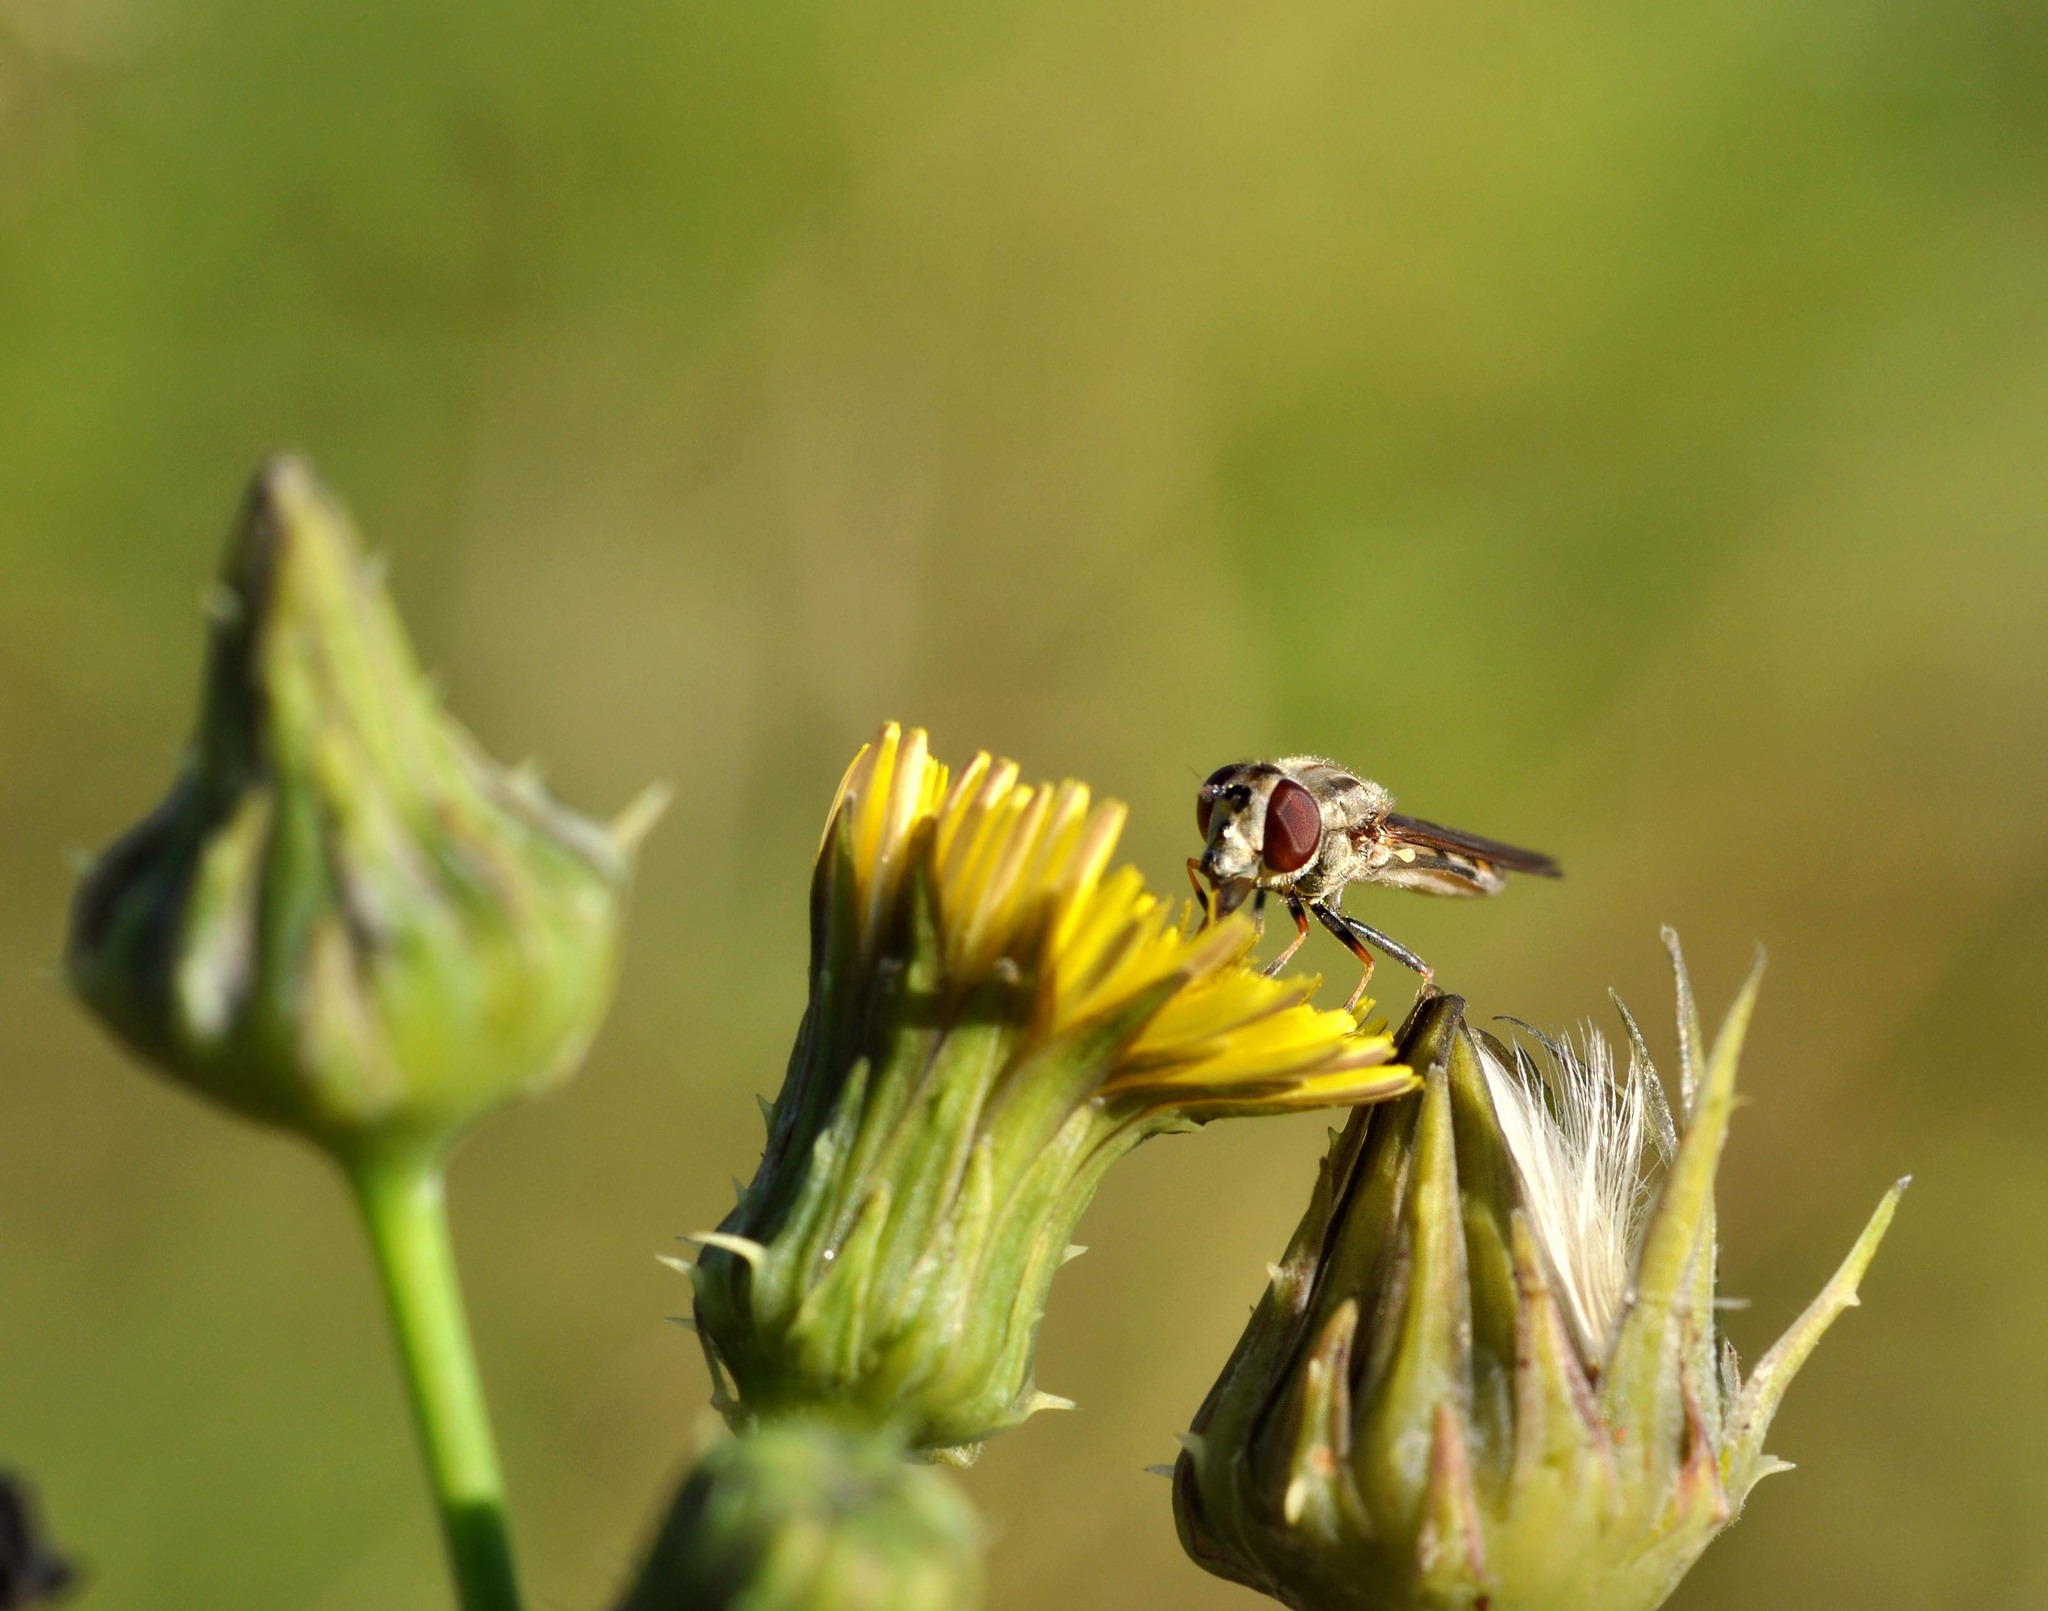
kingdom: Animalia
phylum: Arthropoda
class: Insecta
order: Diptera
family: Syrphidae
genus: Platycheirus
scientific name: Platycheirus manicatus
